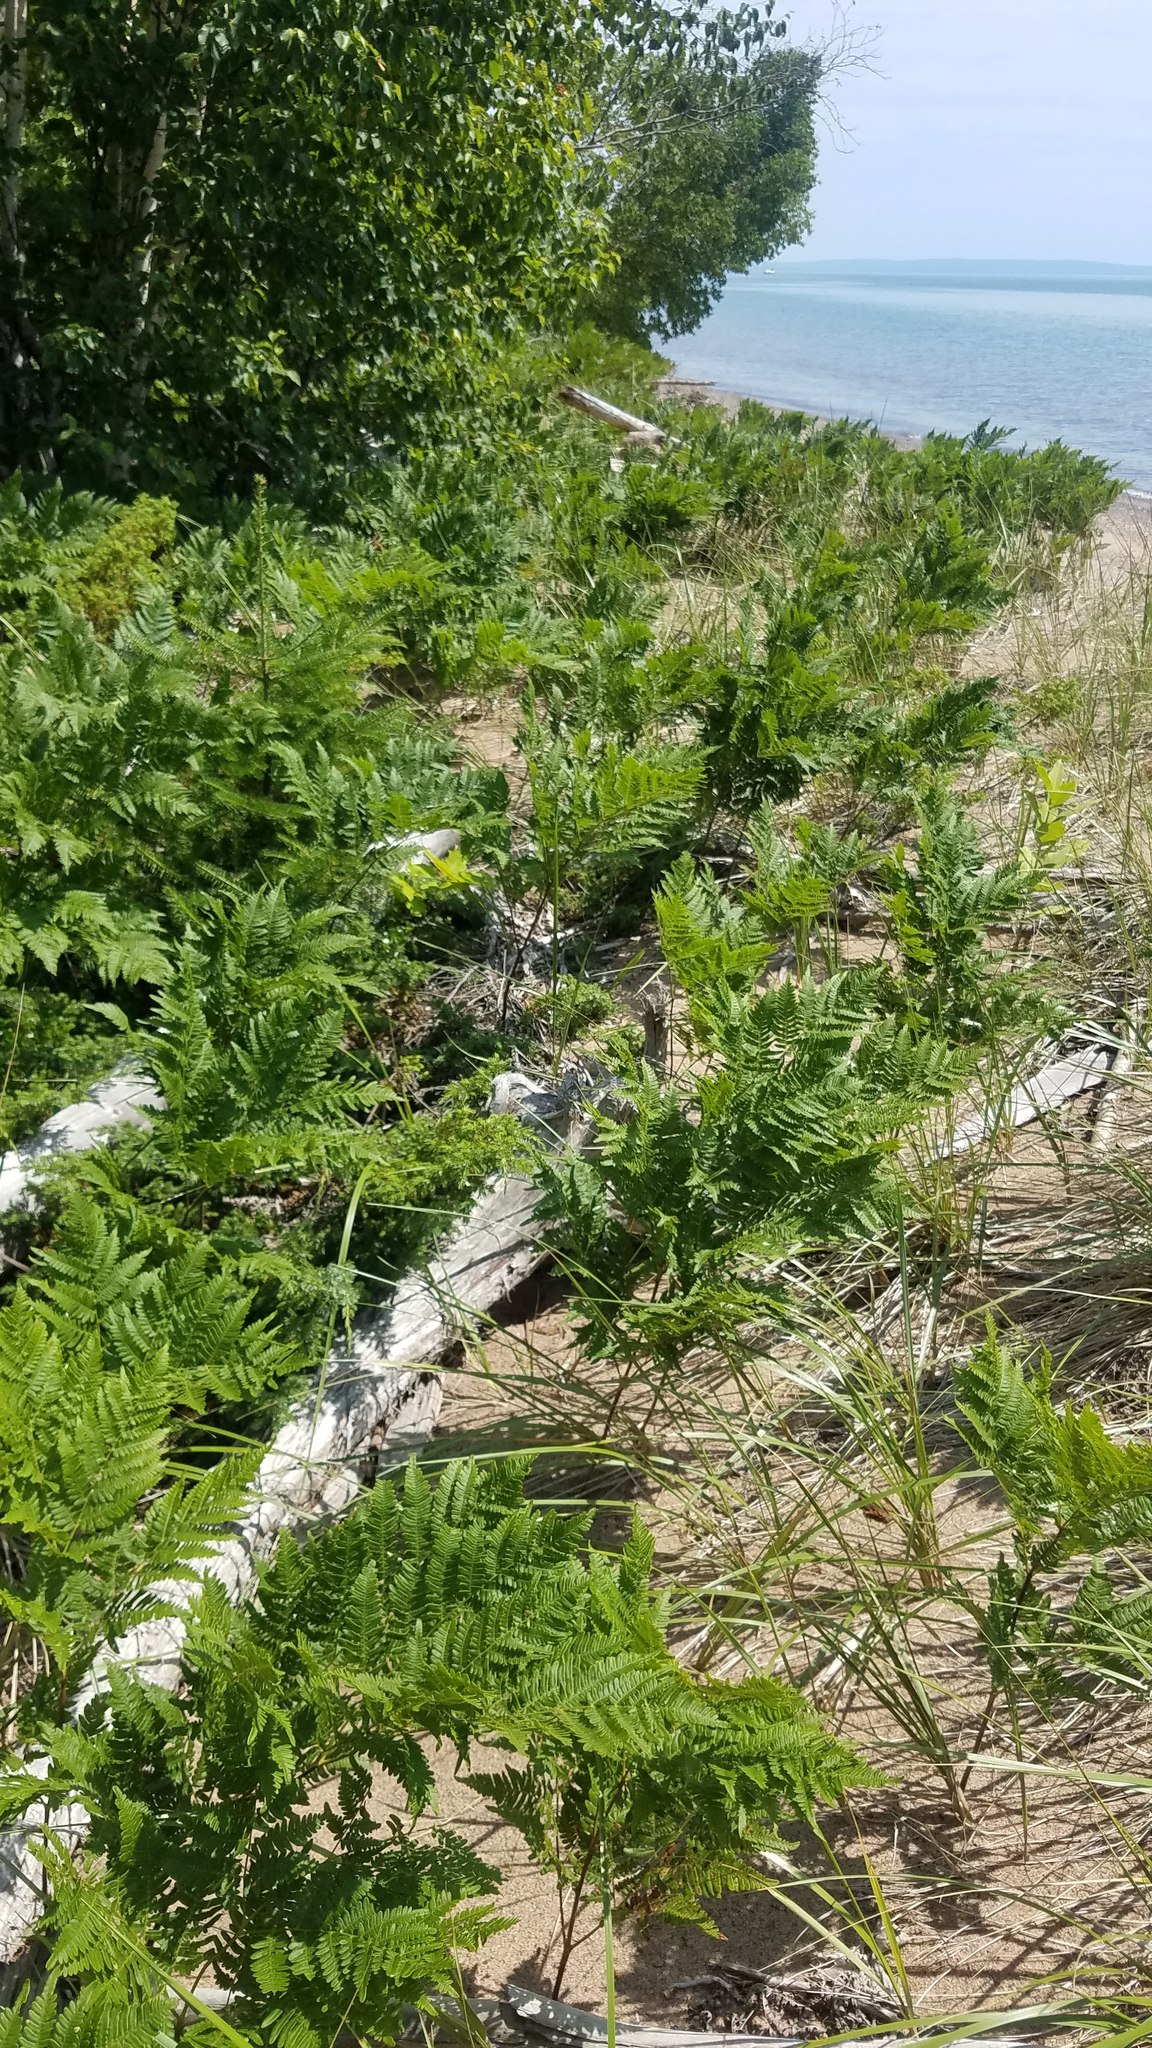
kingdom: Plantae
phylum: Tracheophyta
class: Polypodiopsida
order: Polypodiales
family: Dennstaedtiaceae
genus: Pteridium
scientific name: Pteridium aquilinum
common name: Bracken
